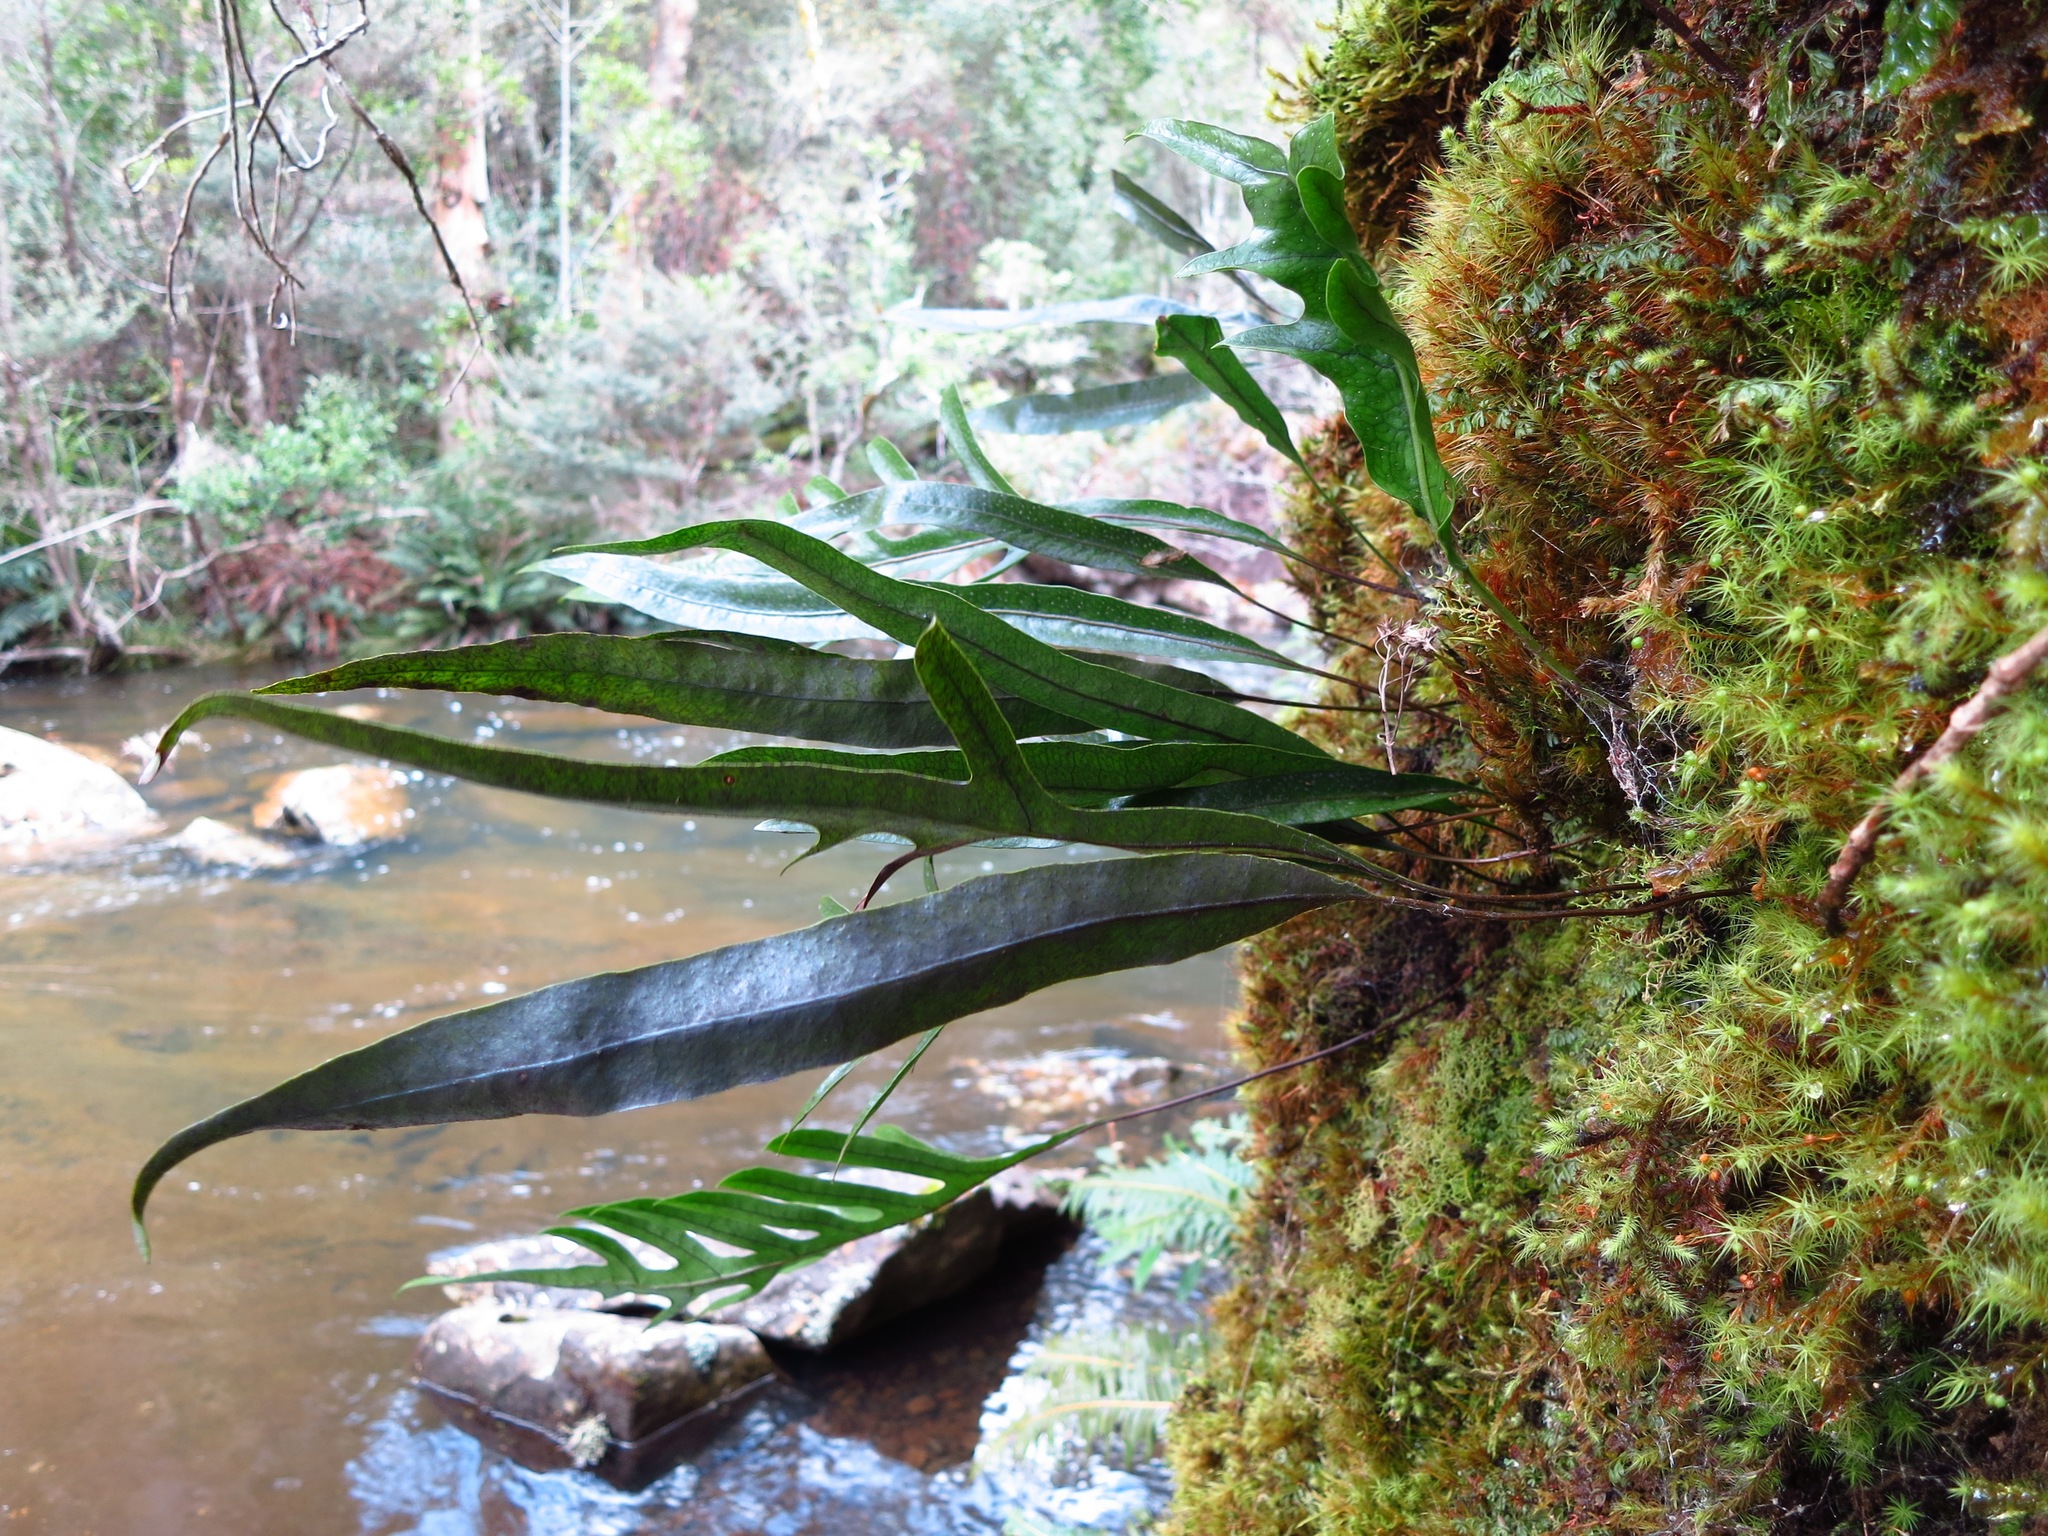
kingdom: Plantae
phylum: Tracheophyta
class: Polypodiopsida
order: Polypodiales
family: Polypodiaceae
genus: Lecanopteris
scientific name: Lecanopteris pustulata
